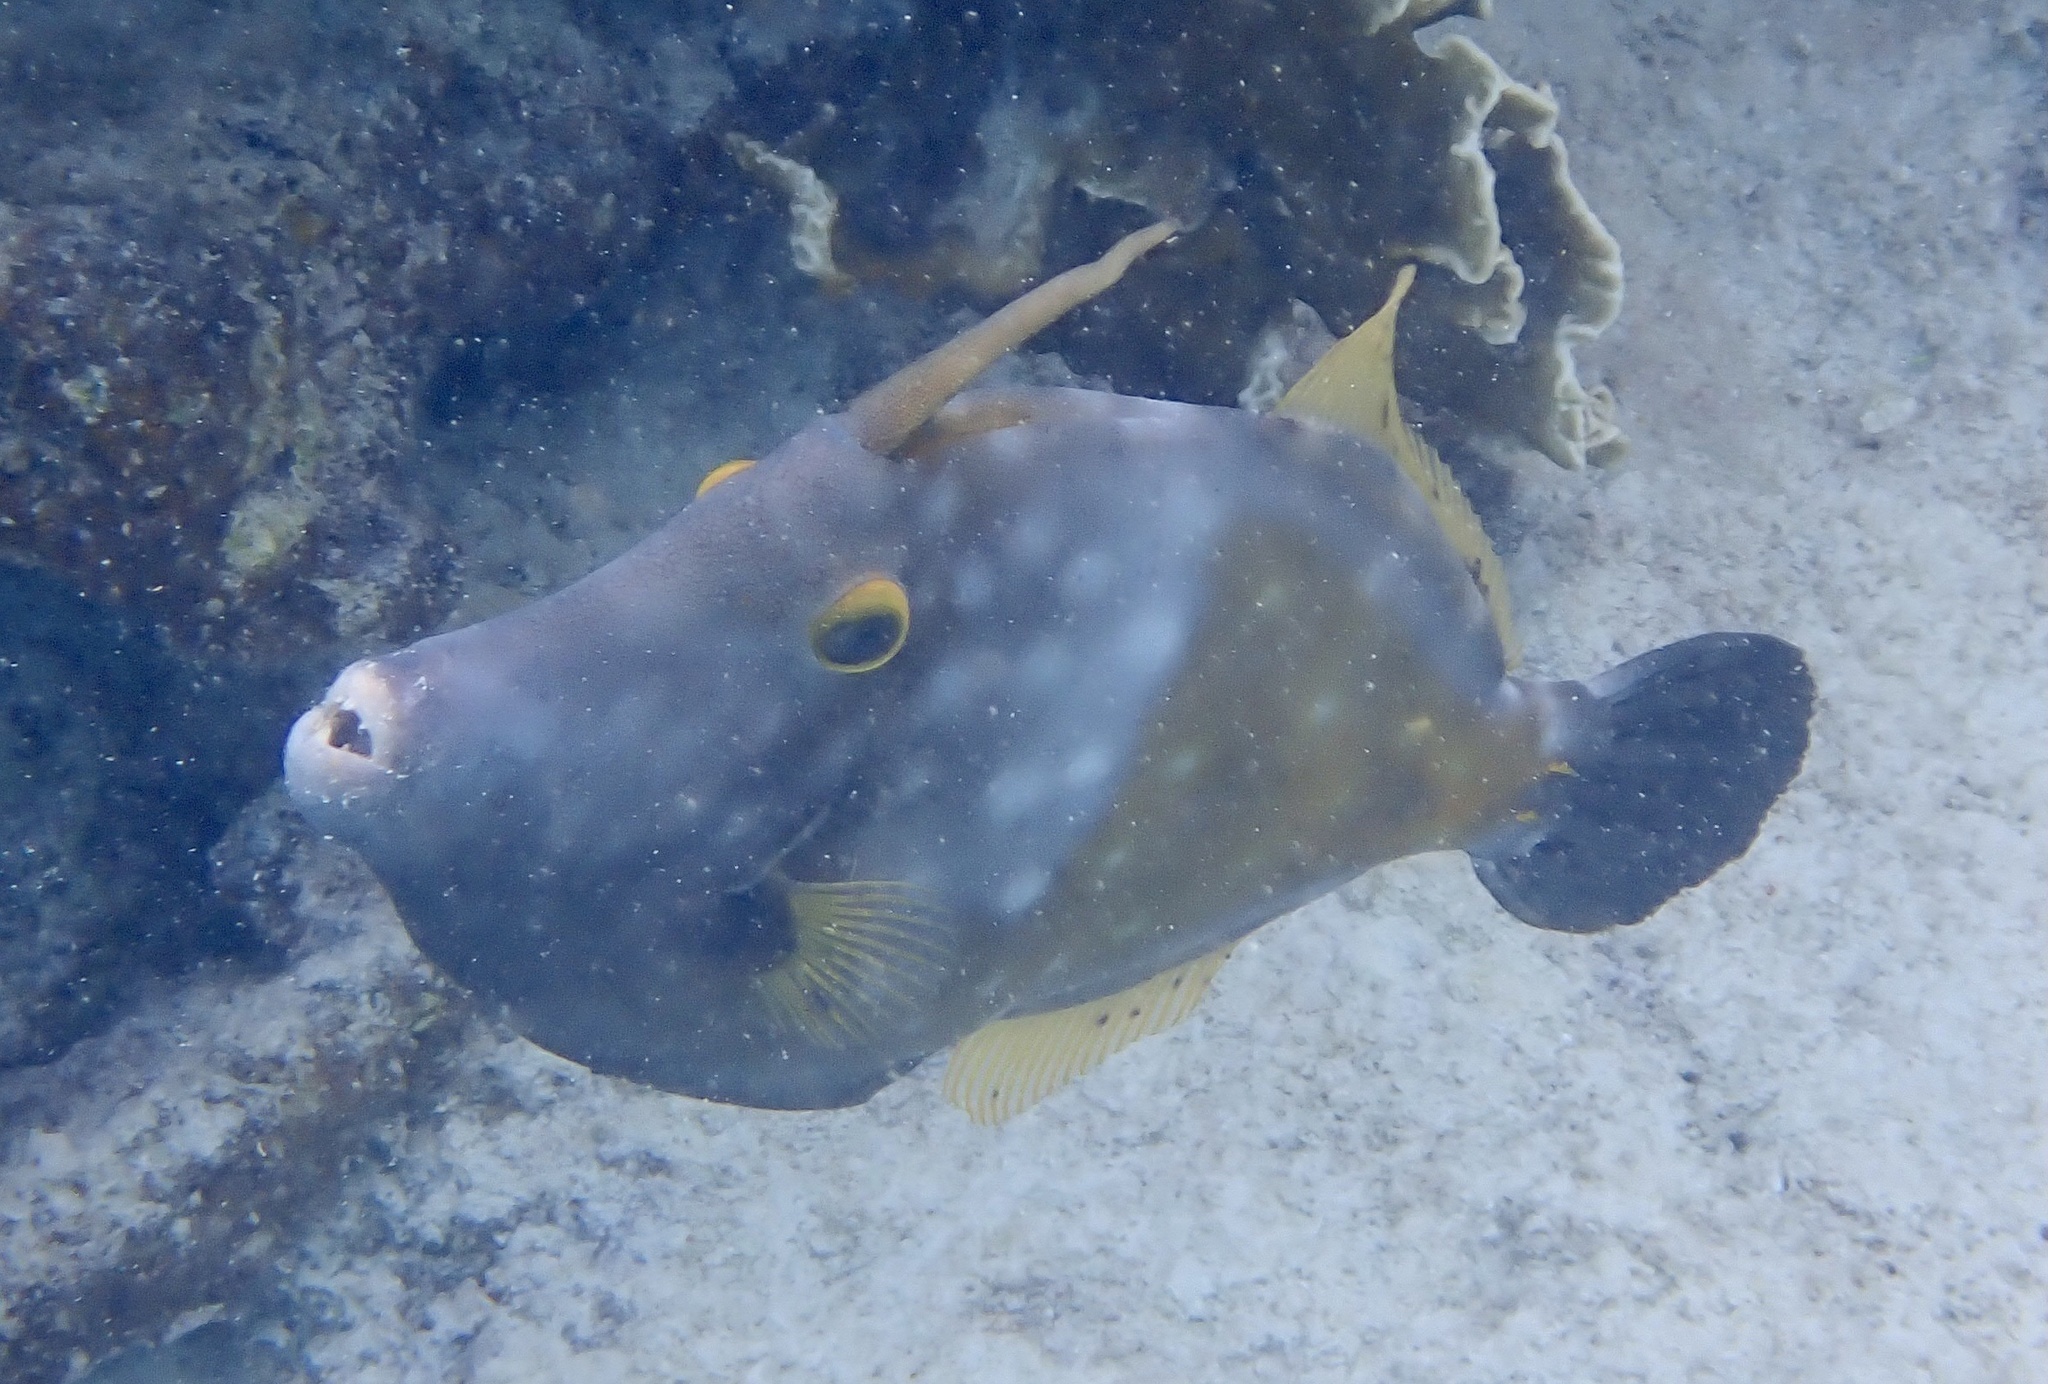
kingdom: Animalia
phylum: Chordata
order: Tetraodontiformes
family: Monacanthidae
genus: Cantherhines
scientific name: Cantherhines macrocerus
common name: Whitespotted filefish
